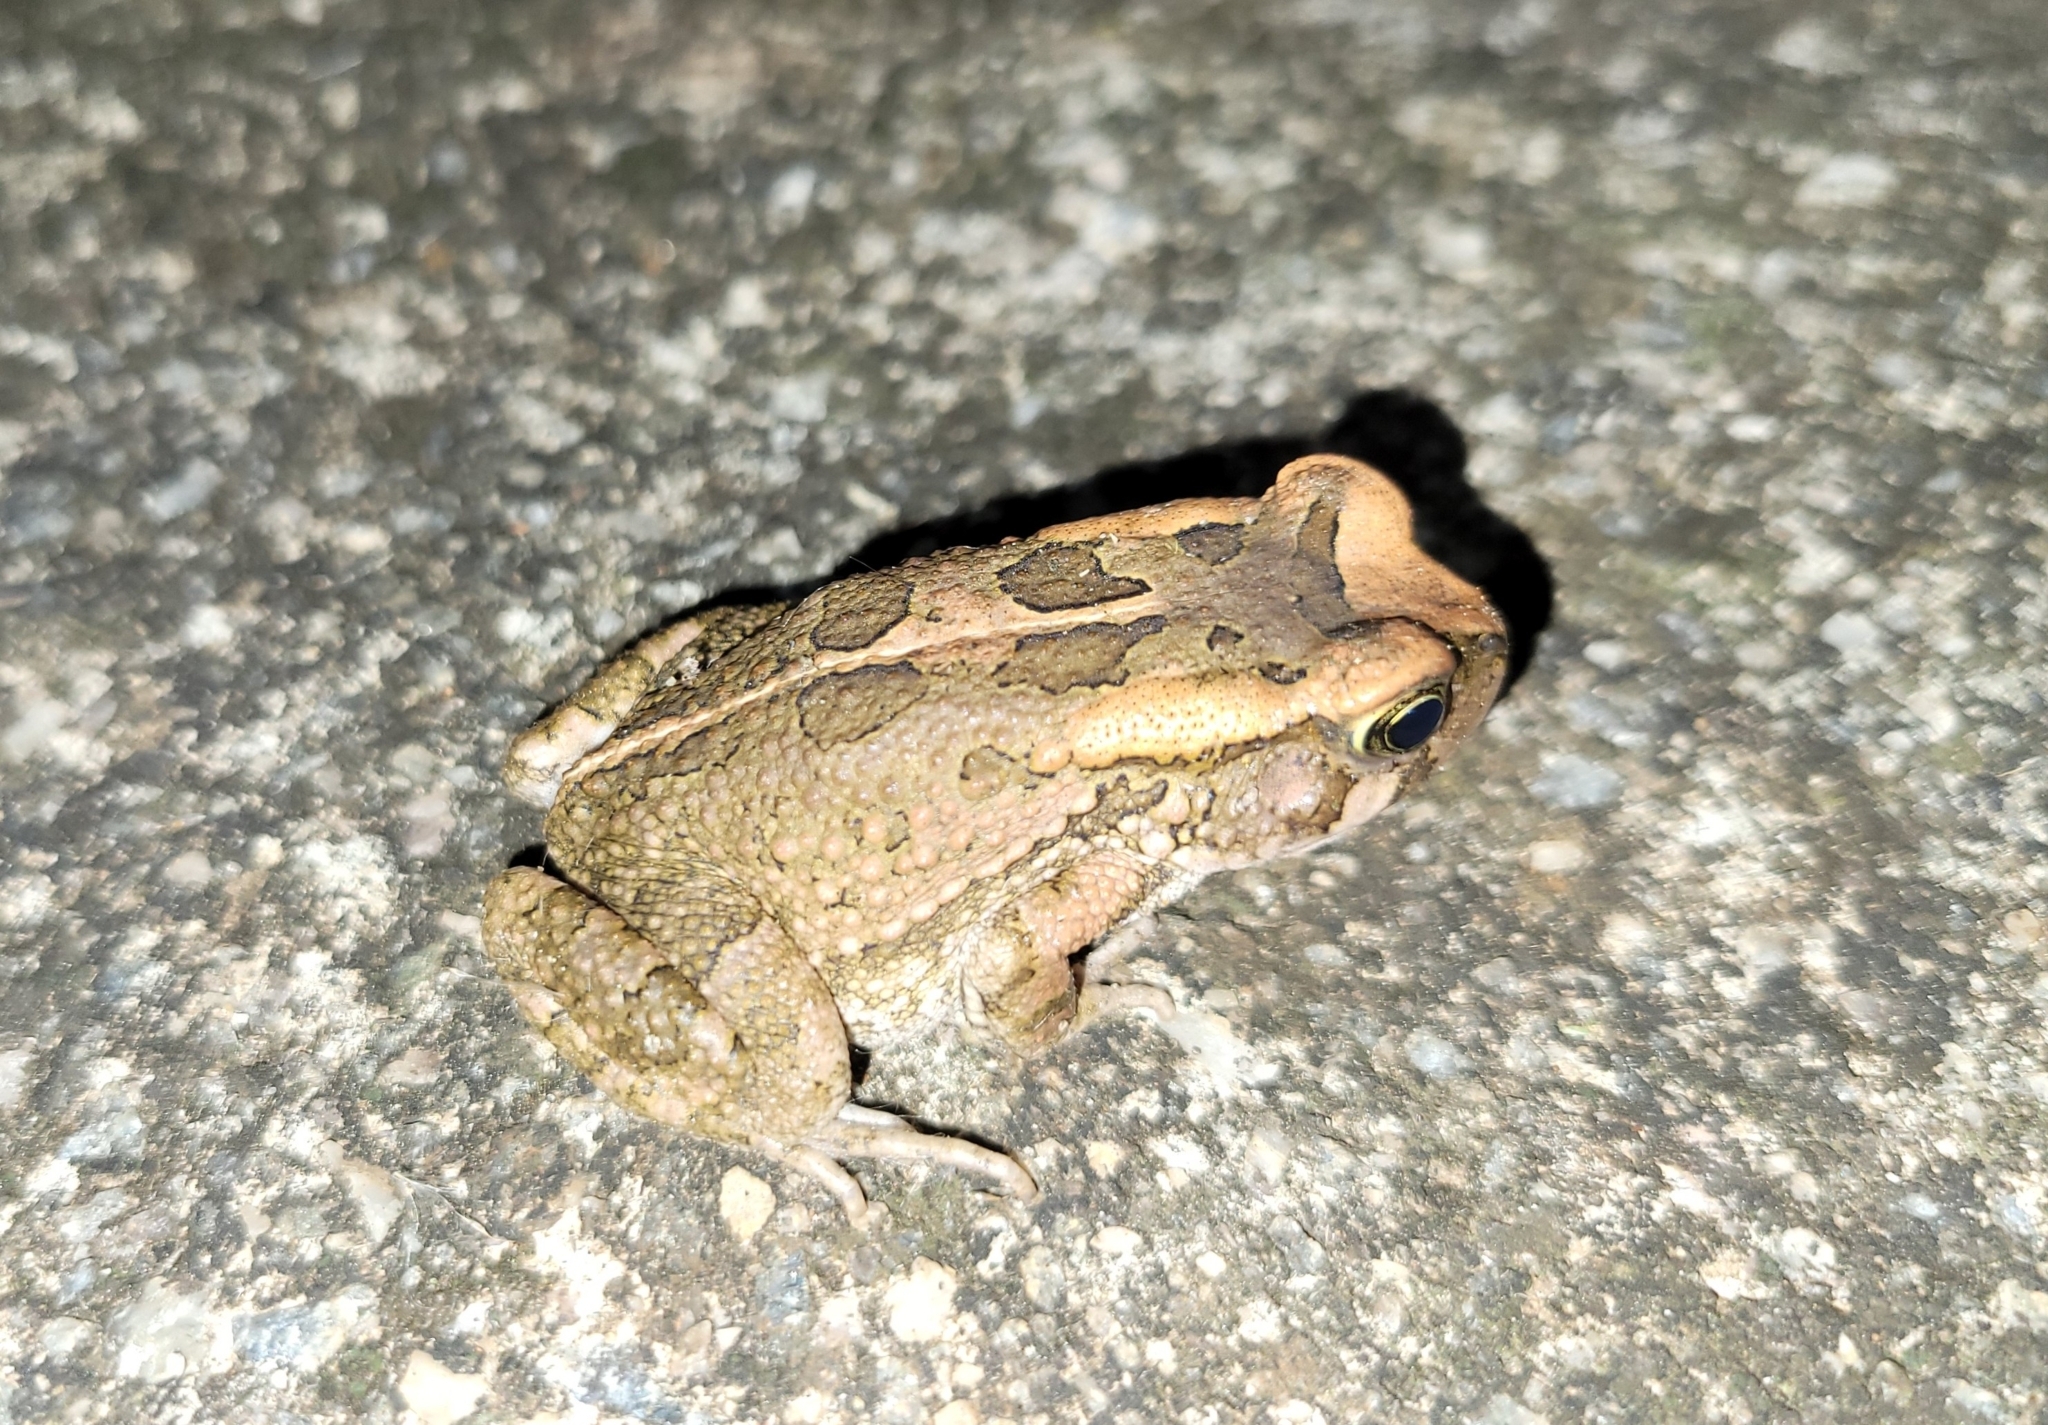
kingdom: Animalia
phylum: Chordata
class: Amphibia
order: Anura
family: Bufonidae
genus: Sclerophrys
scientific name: Sclerophrys capensis
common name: Ranger’s toad
